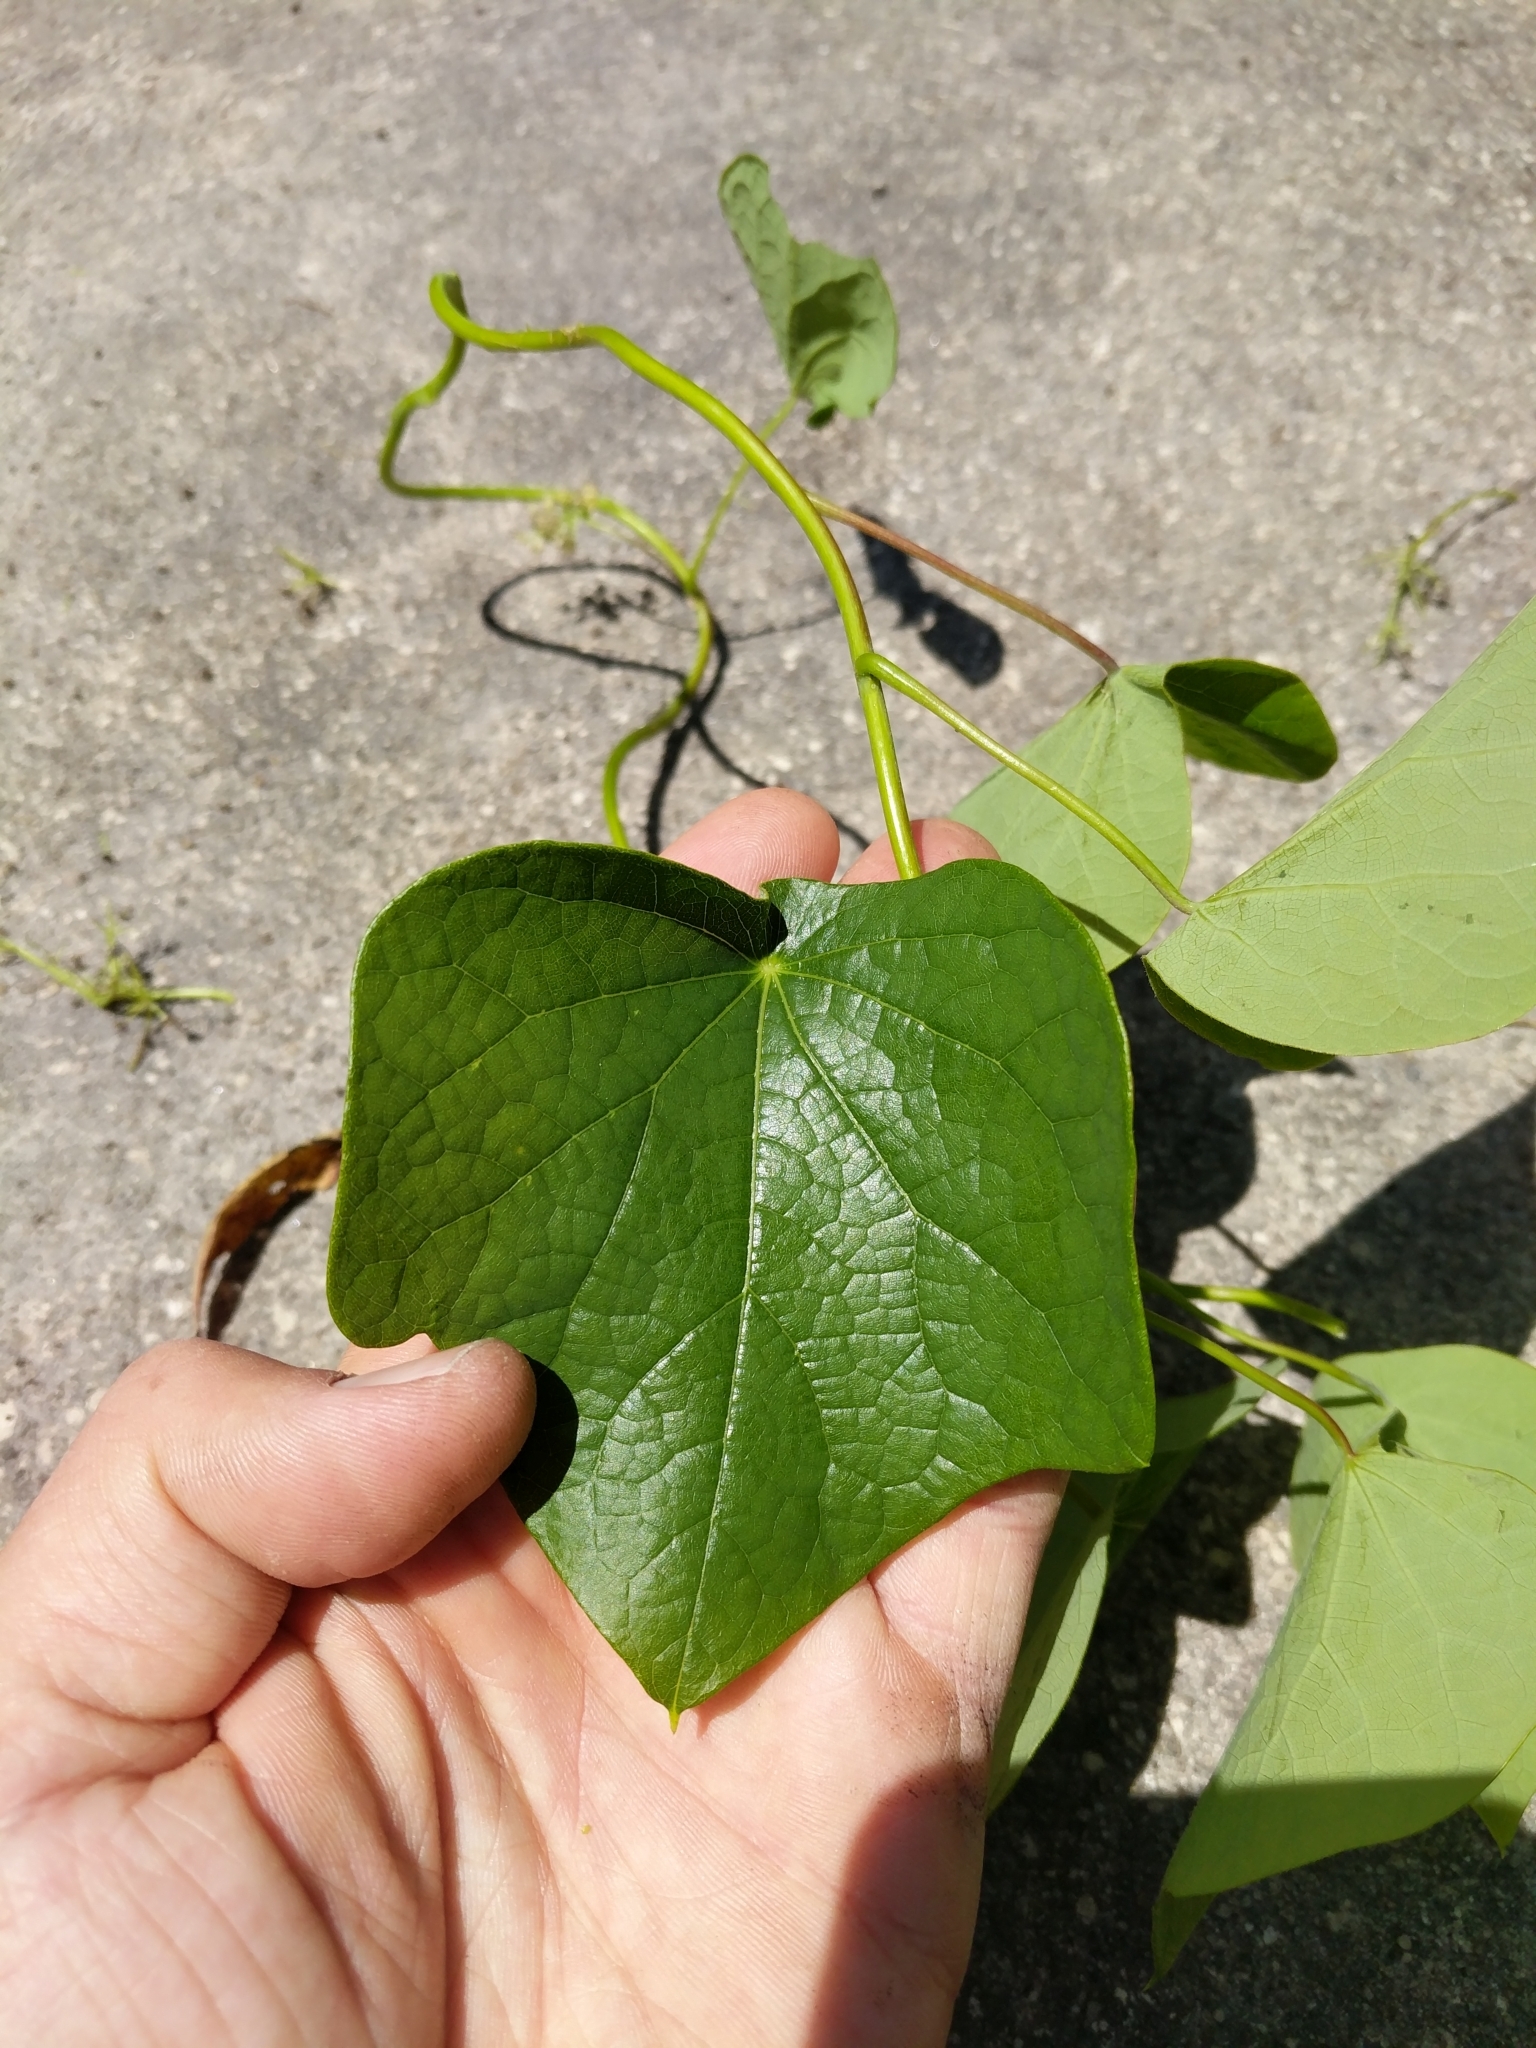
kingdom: Plantae
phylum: Tracheophyta
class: Magnoliopsida
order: Ranunculales
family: Menispermaceae
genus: Menispermum
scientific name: Menispermum canadense
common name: Moonseed
